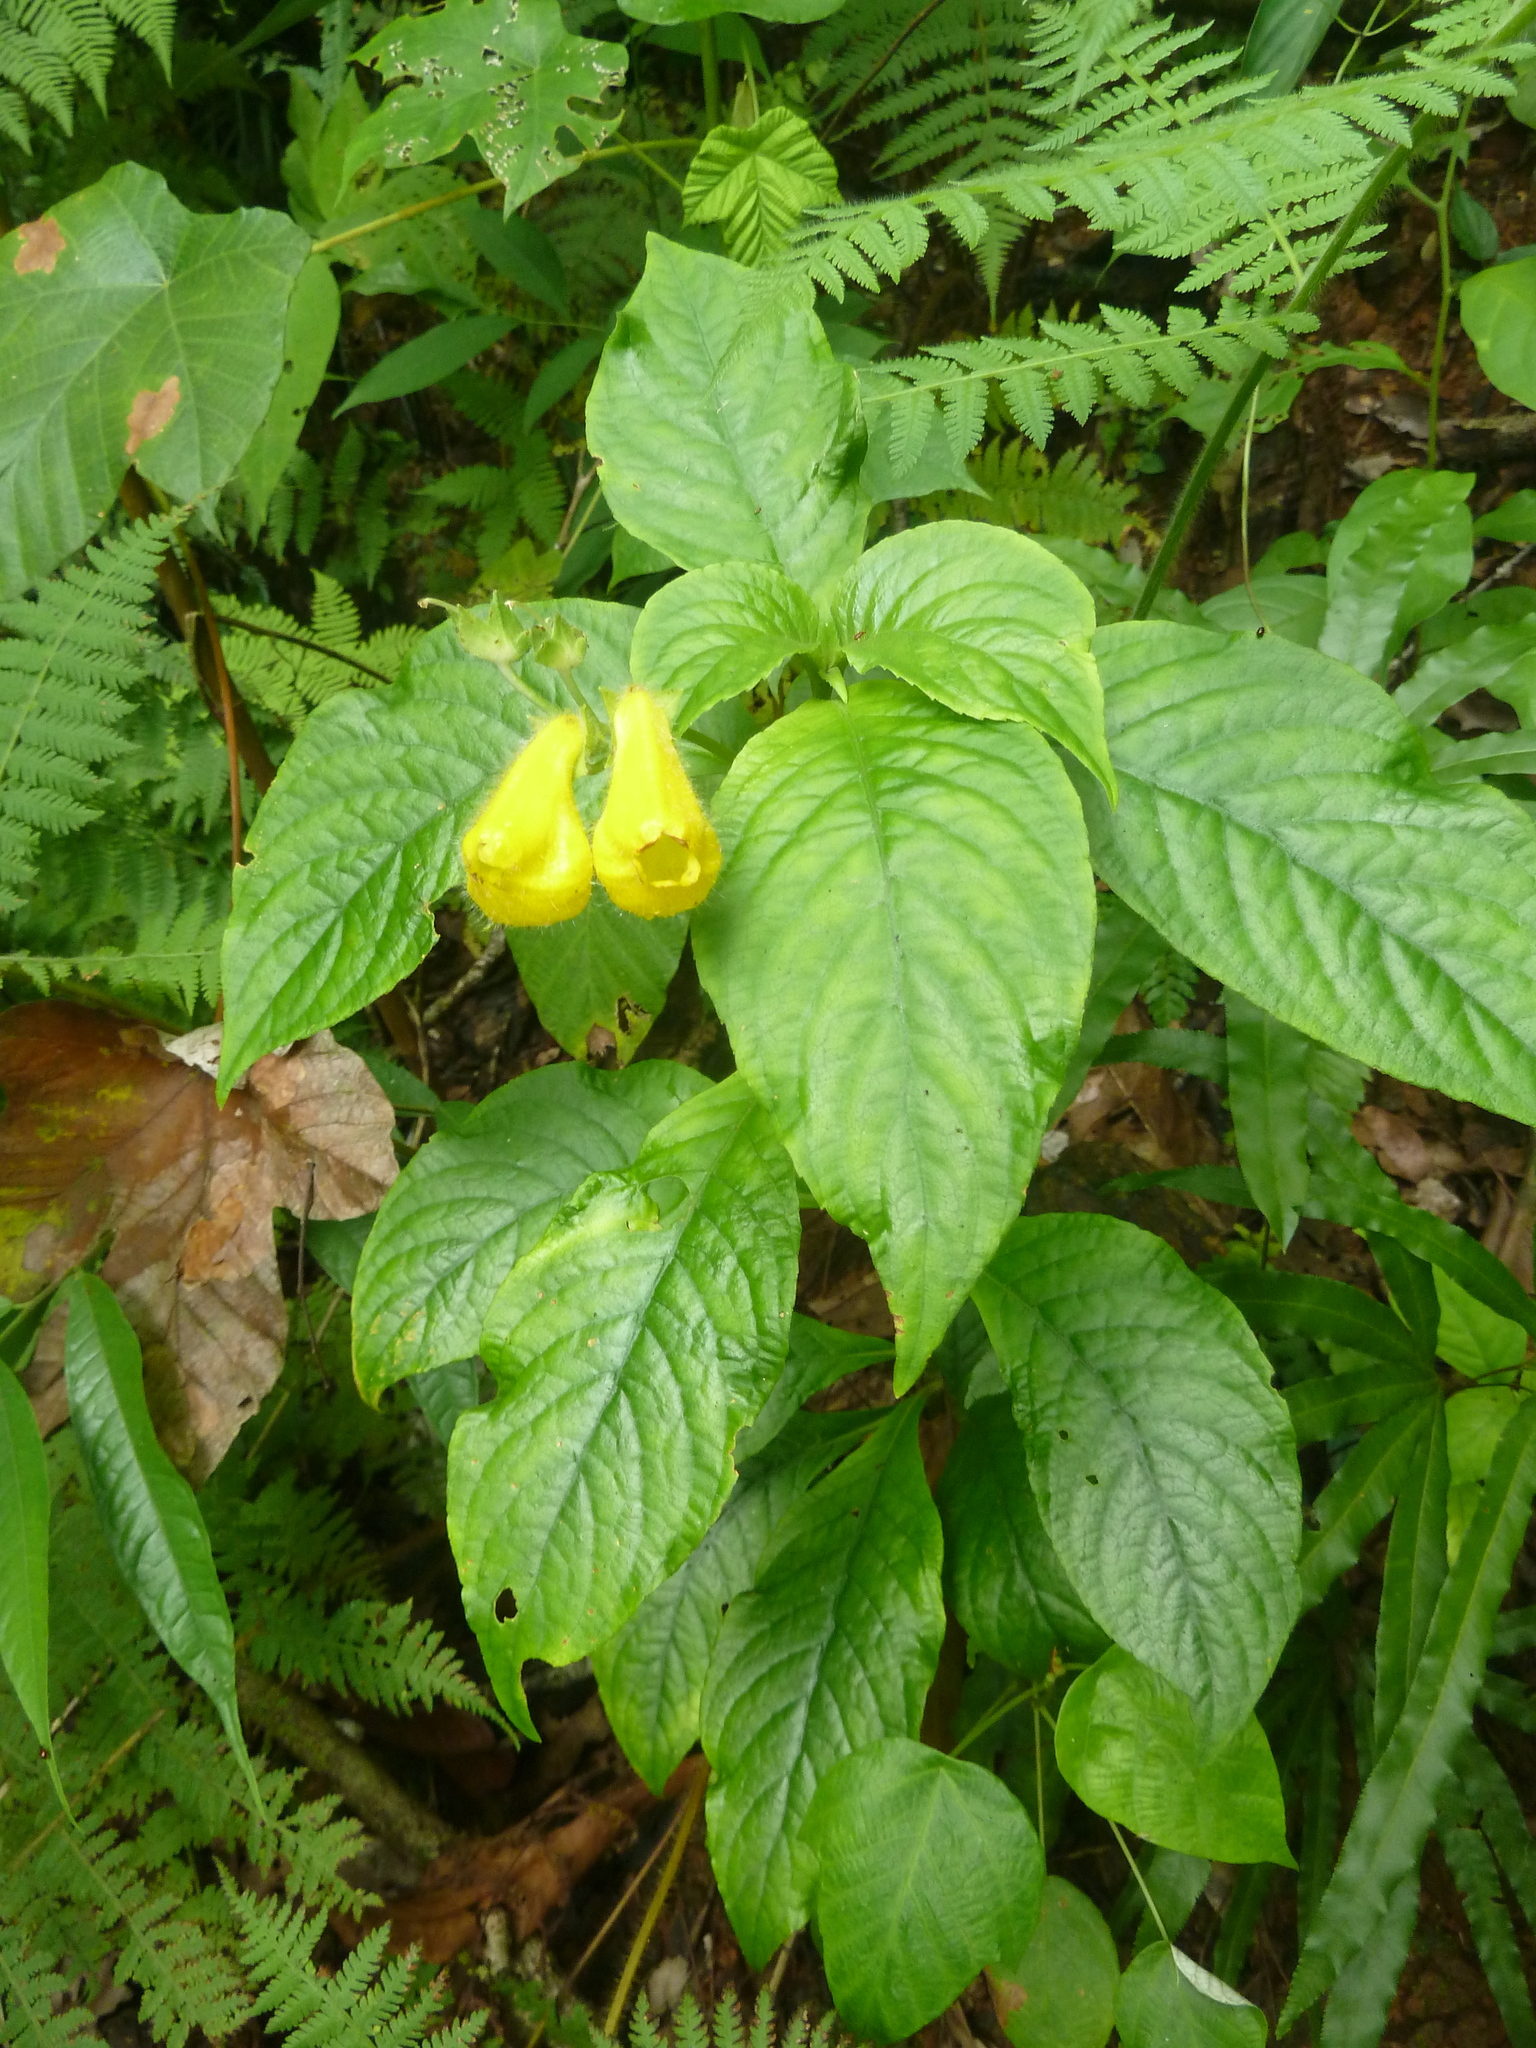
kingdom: Plantae
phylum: Tracheophyta
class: Magnoliopsida
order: Lamiales
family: Gesneriaceae
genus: Gasteranthus
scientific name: Gasteranthus osaensis
